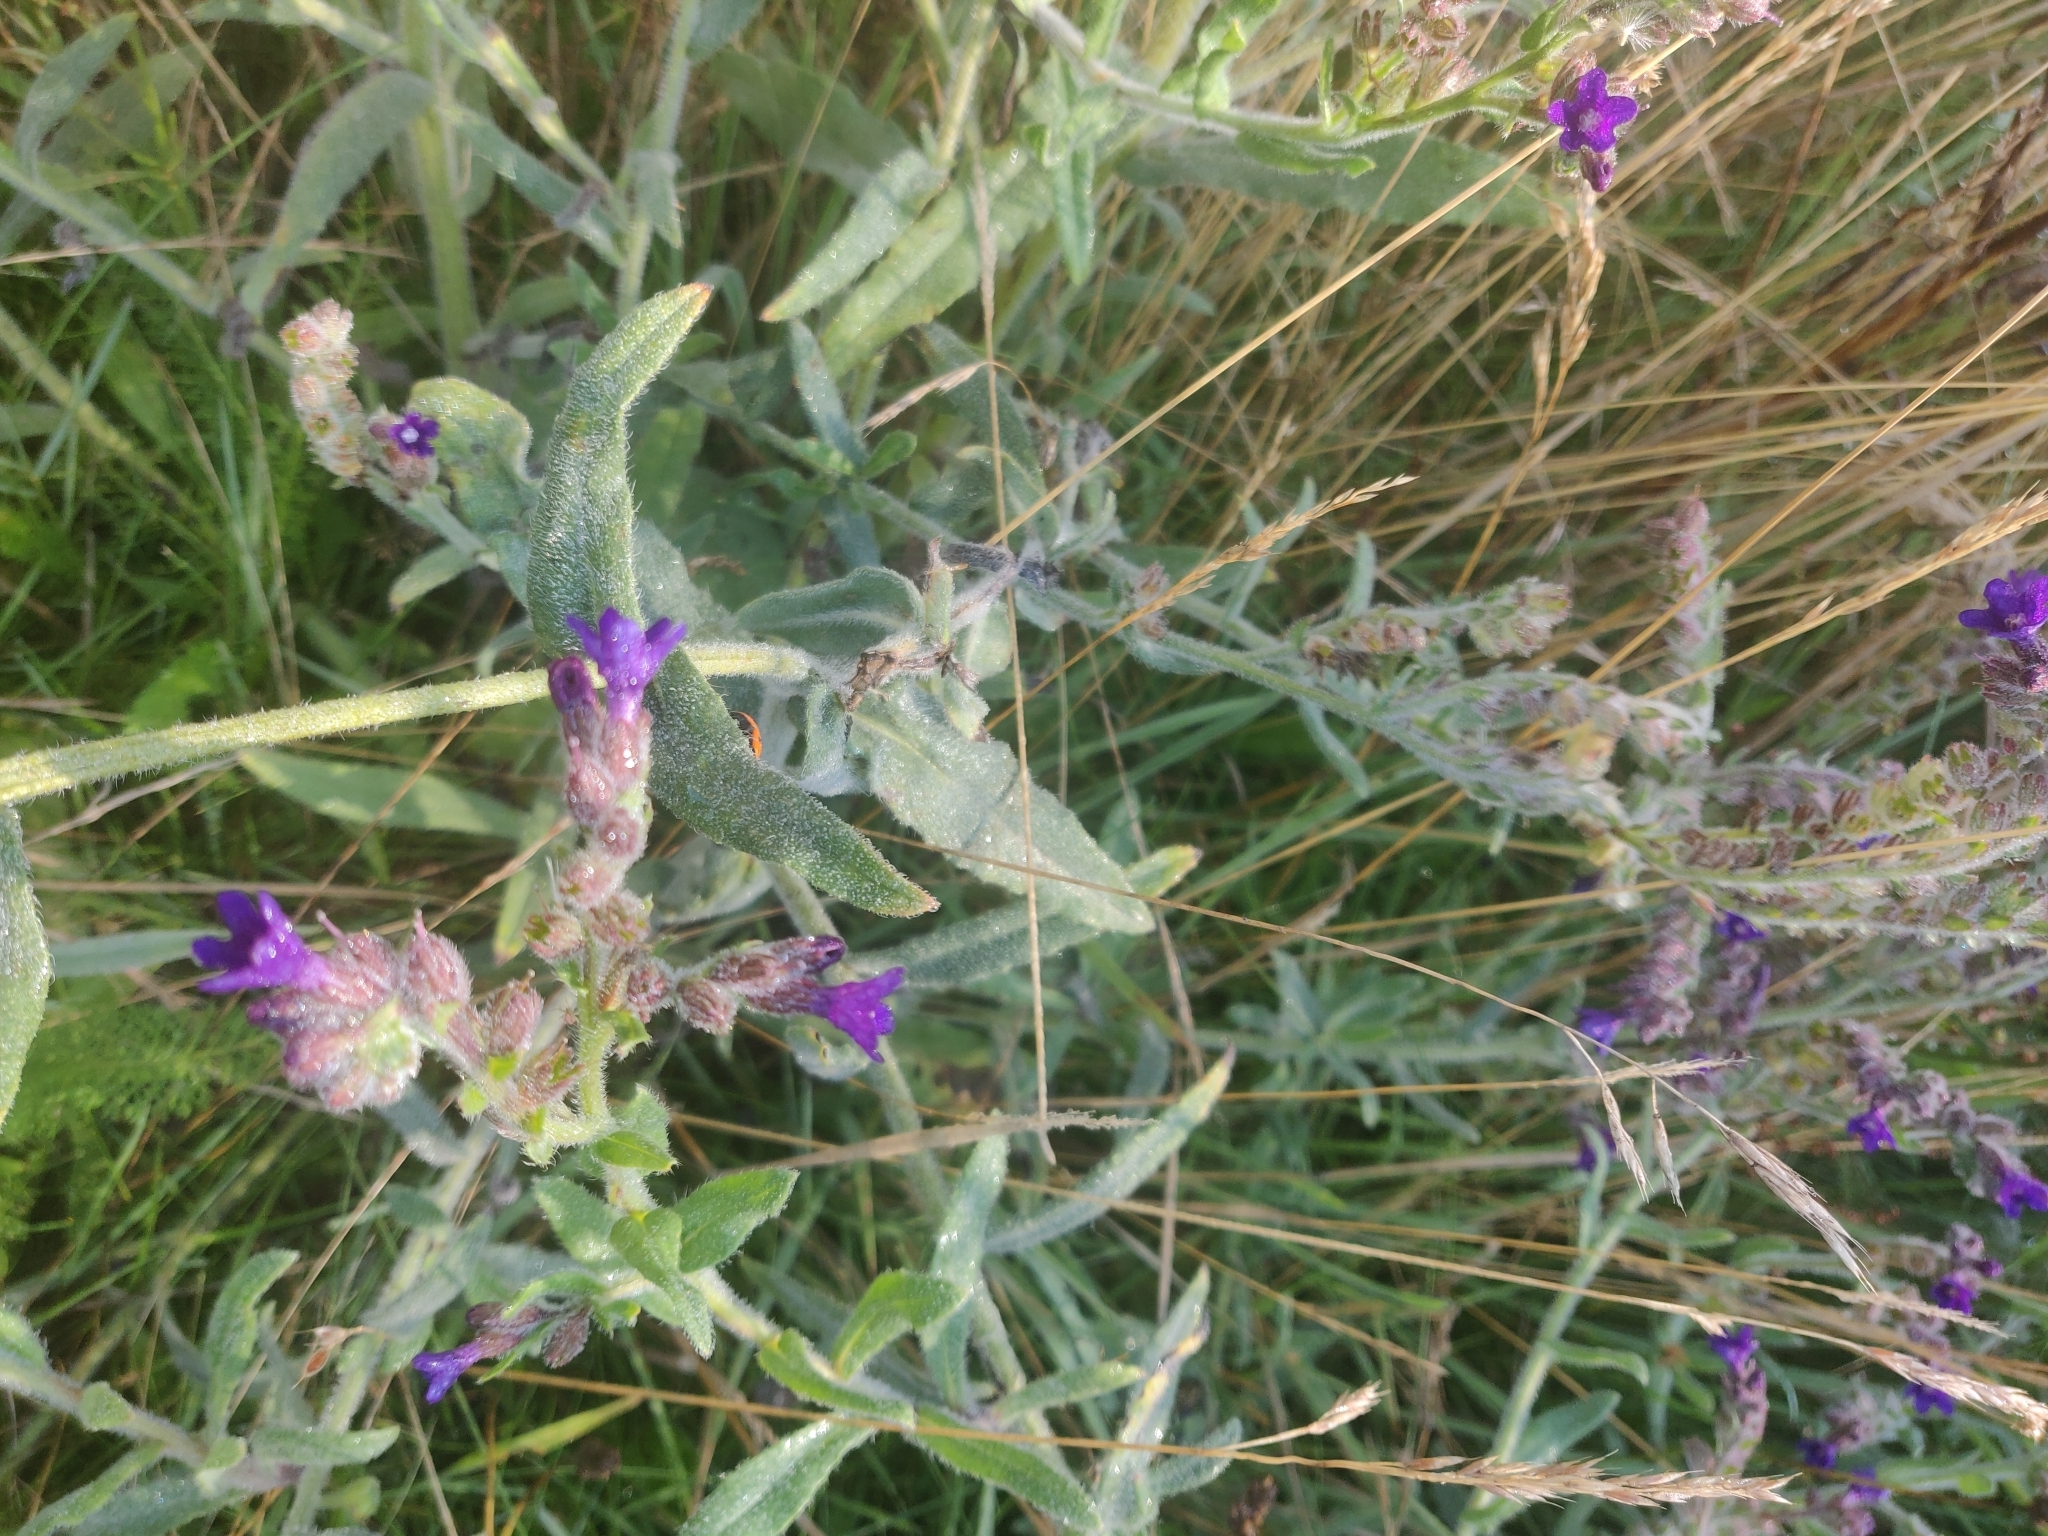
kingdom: Plantae
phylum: Tracheophyta
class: Magnoliopsida
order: Boraginales
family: Boraginaceae
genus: Anchusa
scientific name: Anchusa officinalis
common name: Alkanet
